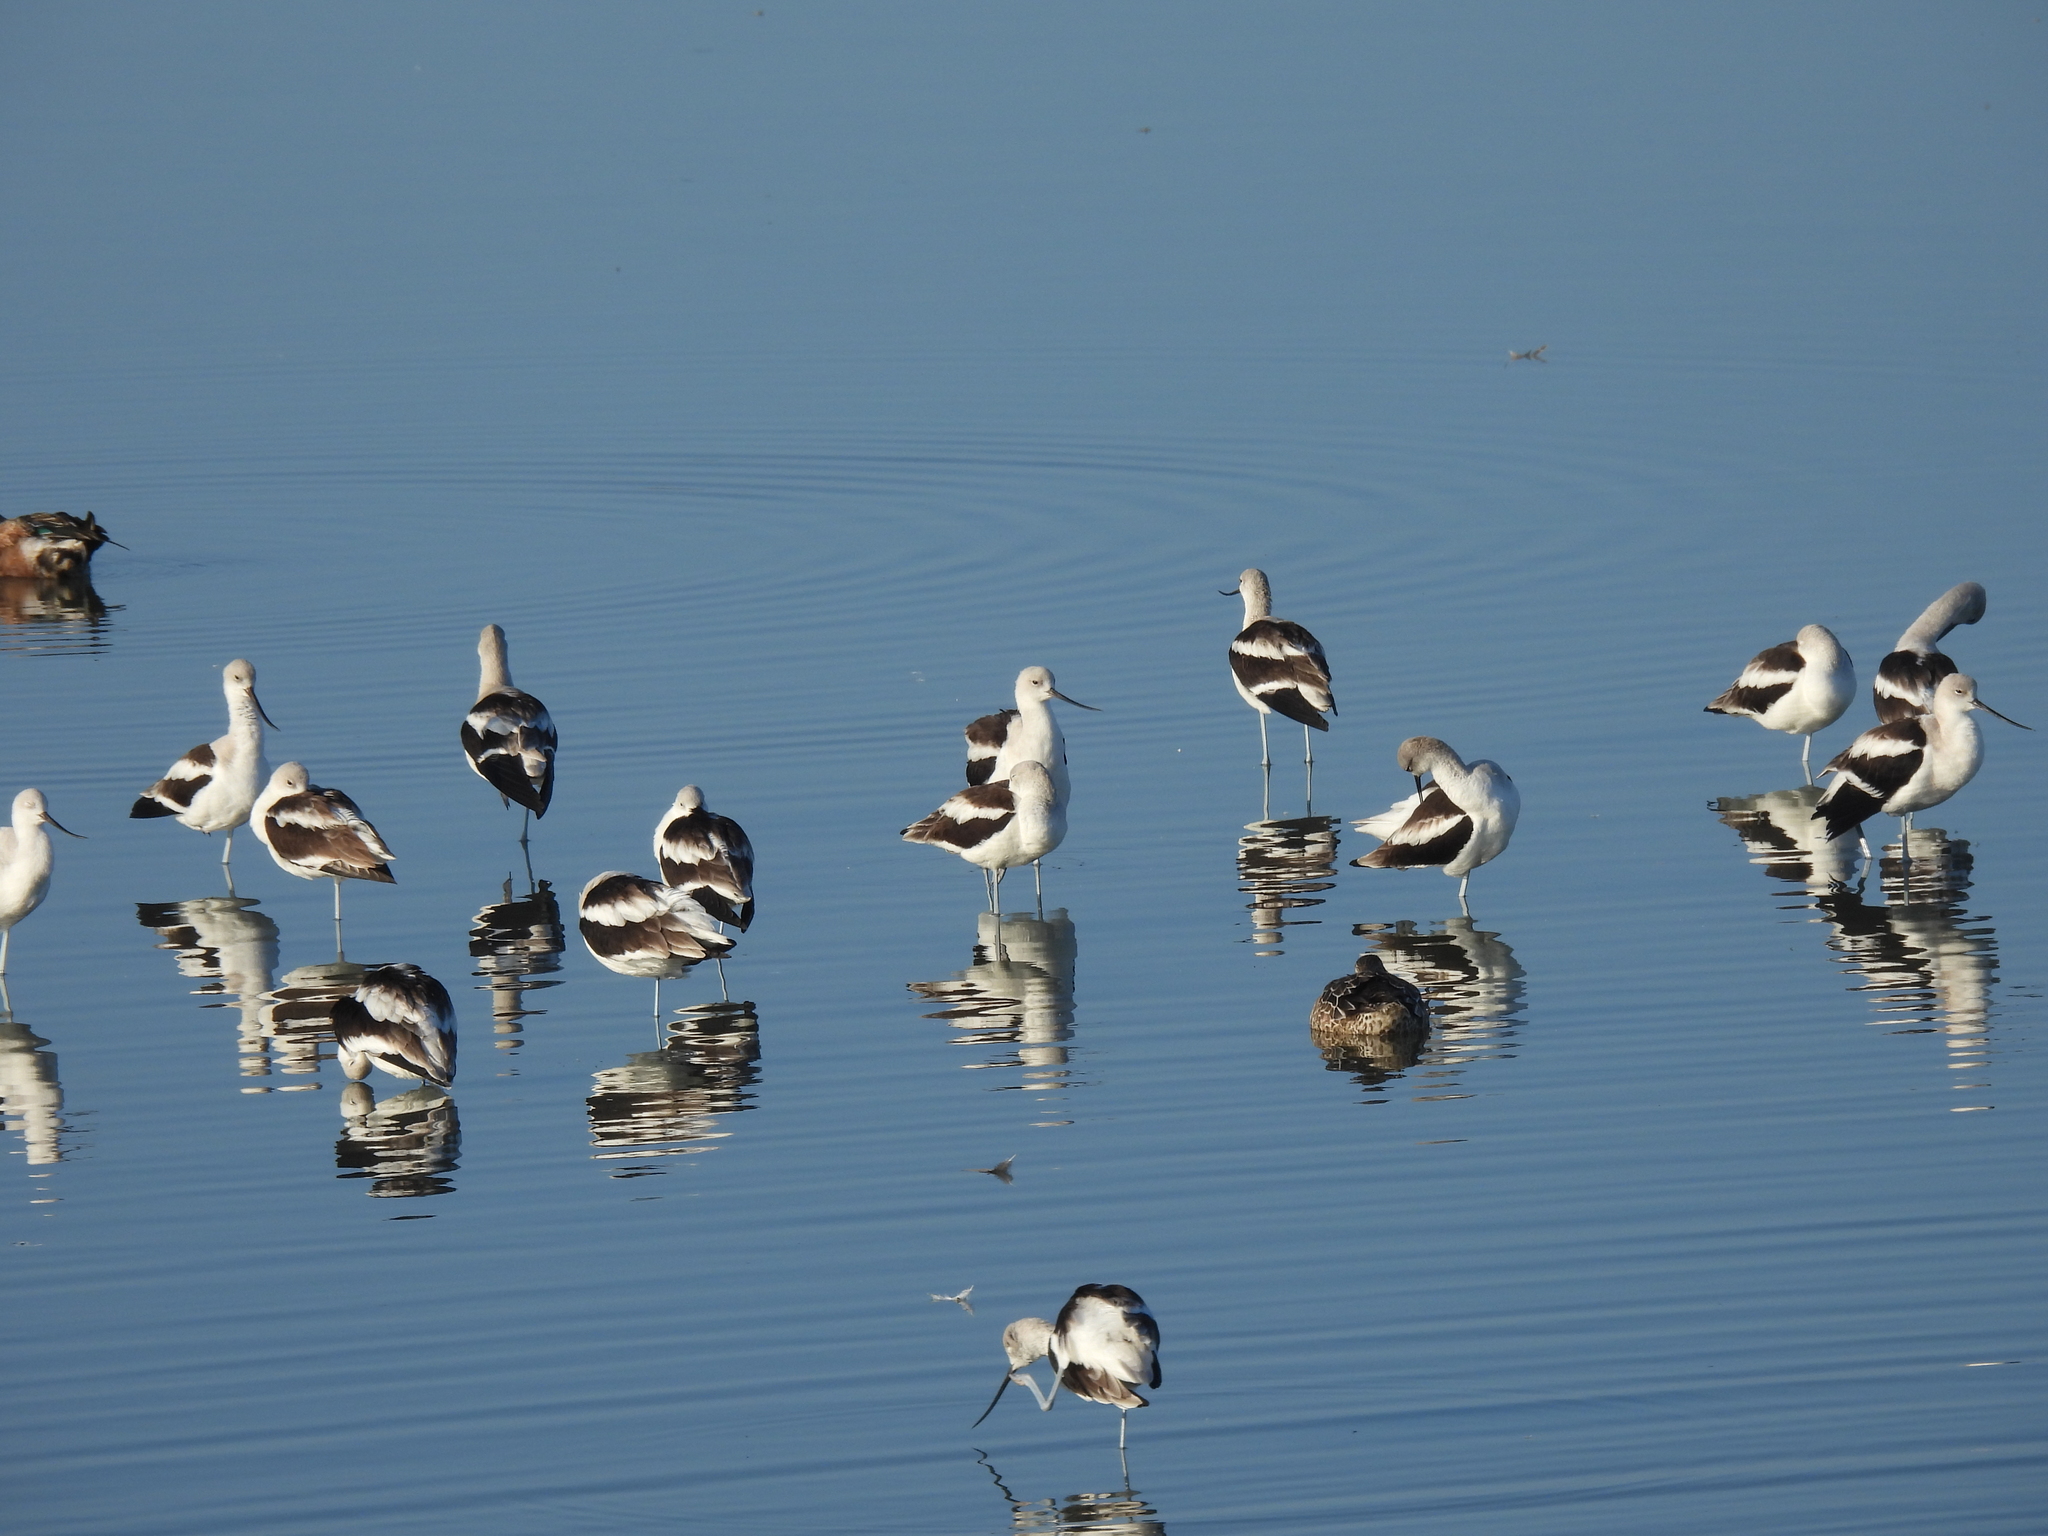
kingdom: Animalia
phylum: Chordata
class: Aves
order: Charadriiformes
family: Recurvirostridae
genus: Recurvirostra
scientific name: Recurvirostra americana
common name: American avocet
